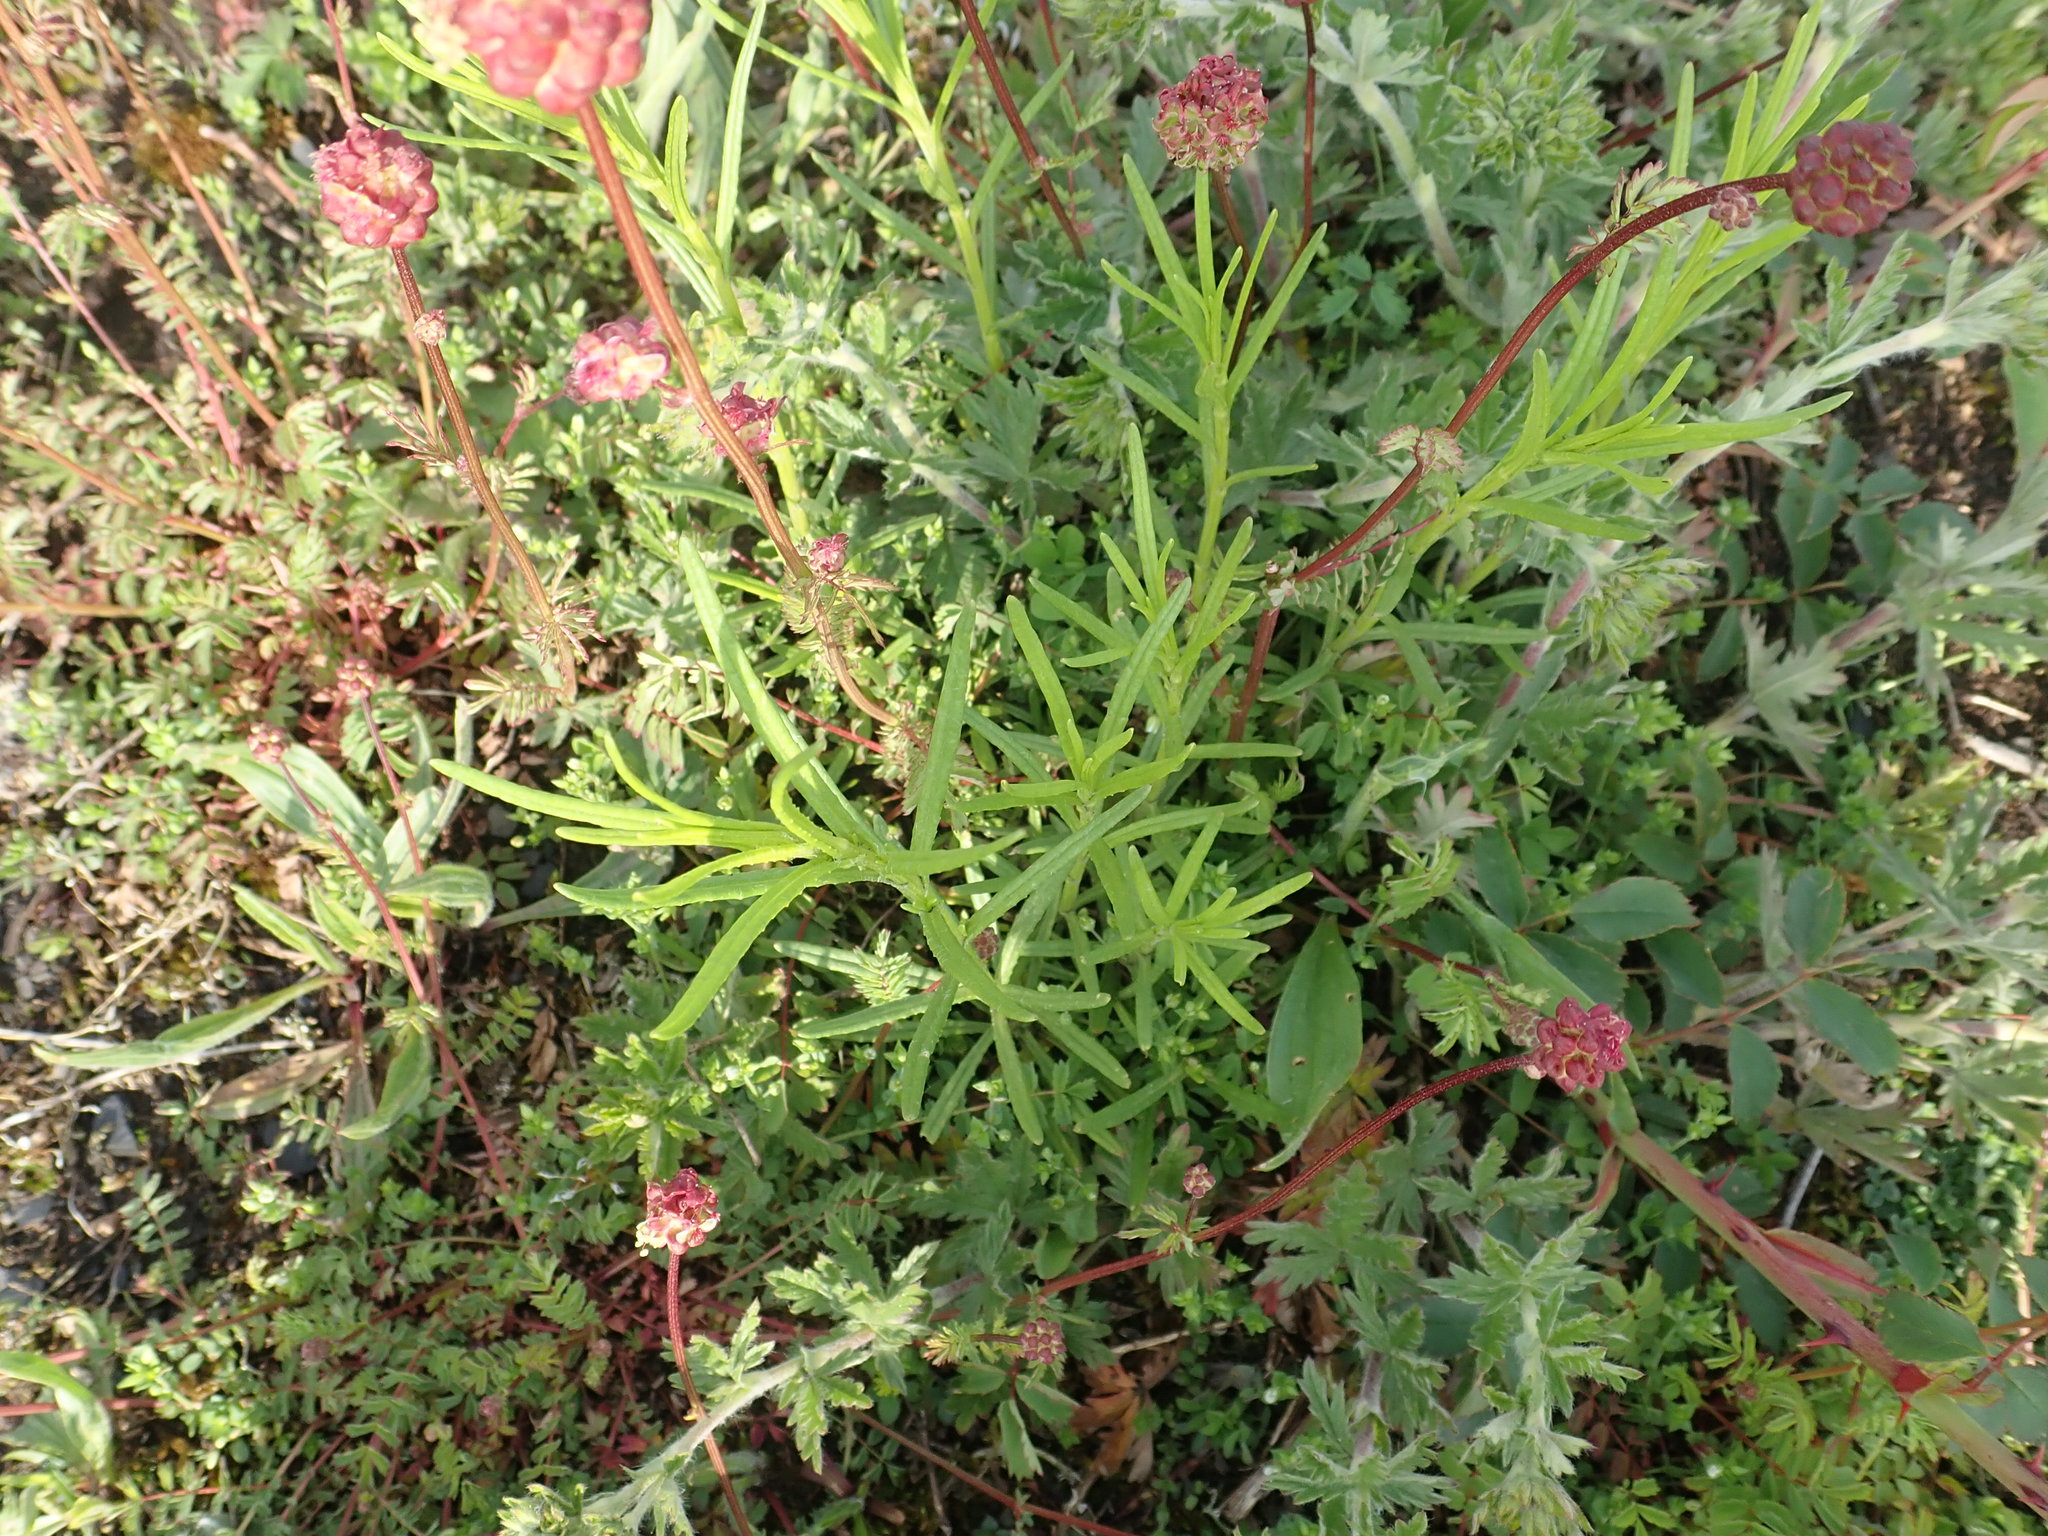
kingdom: Plantae
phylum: Tracheophyta
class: Magnoliopsida
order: Asterales
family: Asteraceae
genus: Senecio
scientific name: Senecio inaequidens
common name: Narrow-leaved ragwort
